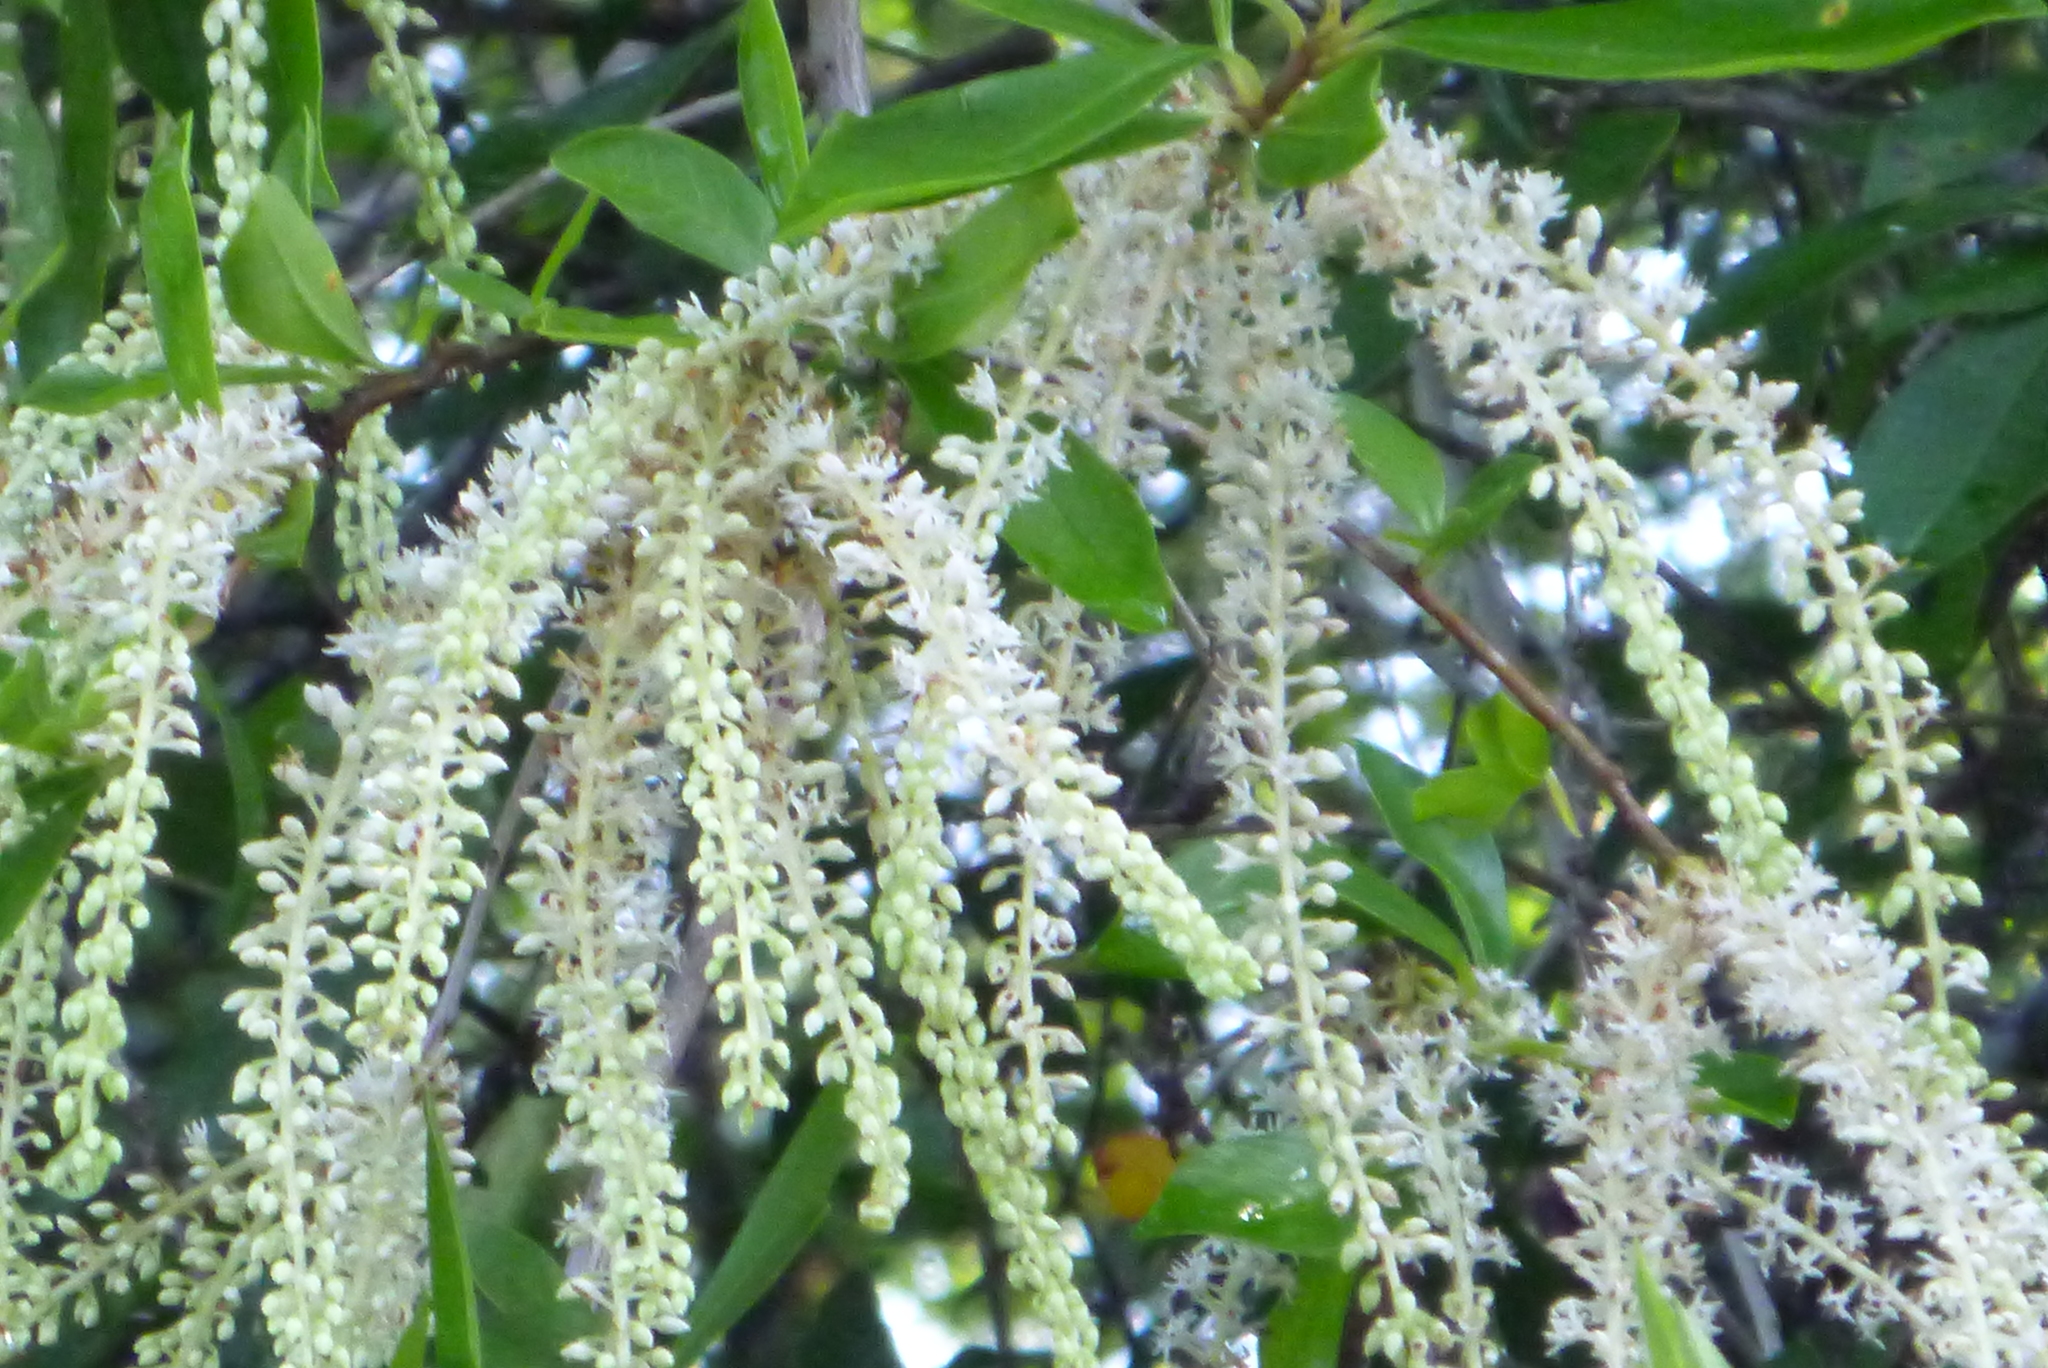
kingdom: Plantae
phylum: Tracheophyta
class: Magnoliopsida
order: Ericales
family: Cyrillaceae
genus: Cyrilla
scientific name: Cyrilla racemiflora
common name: Black titi
